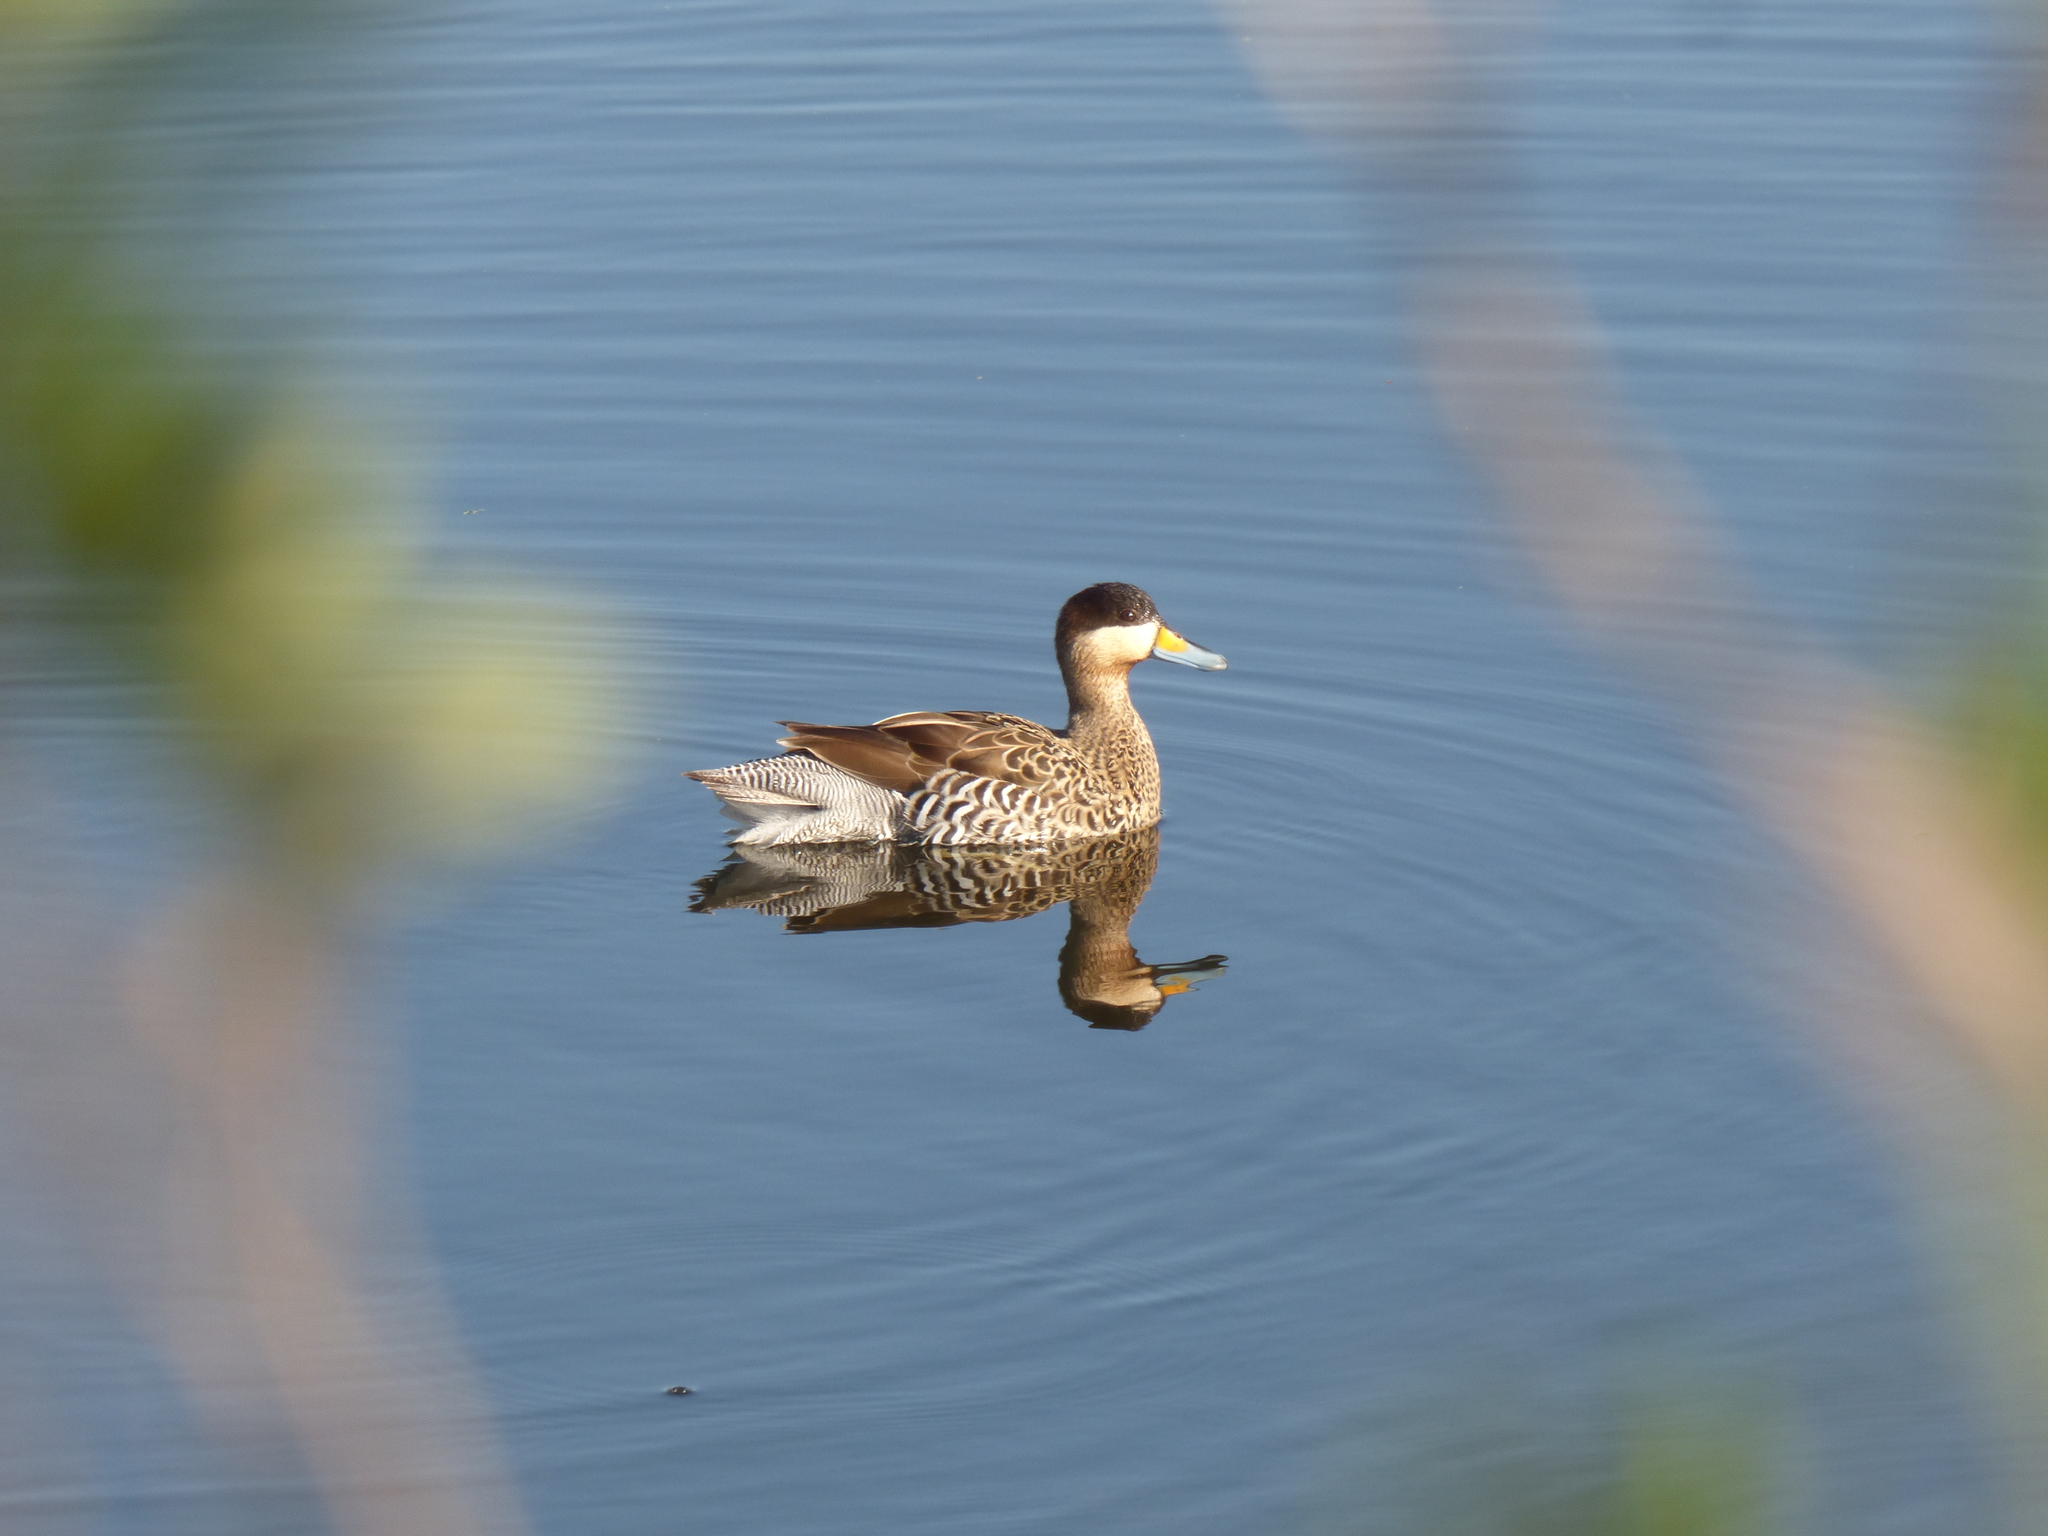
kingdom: Animalia
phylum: Chordata
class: Aves
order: Anseriformes
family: Anatidae
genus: Spatula
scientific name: Spatula versicolor
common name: Silver teal
